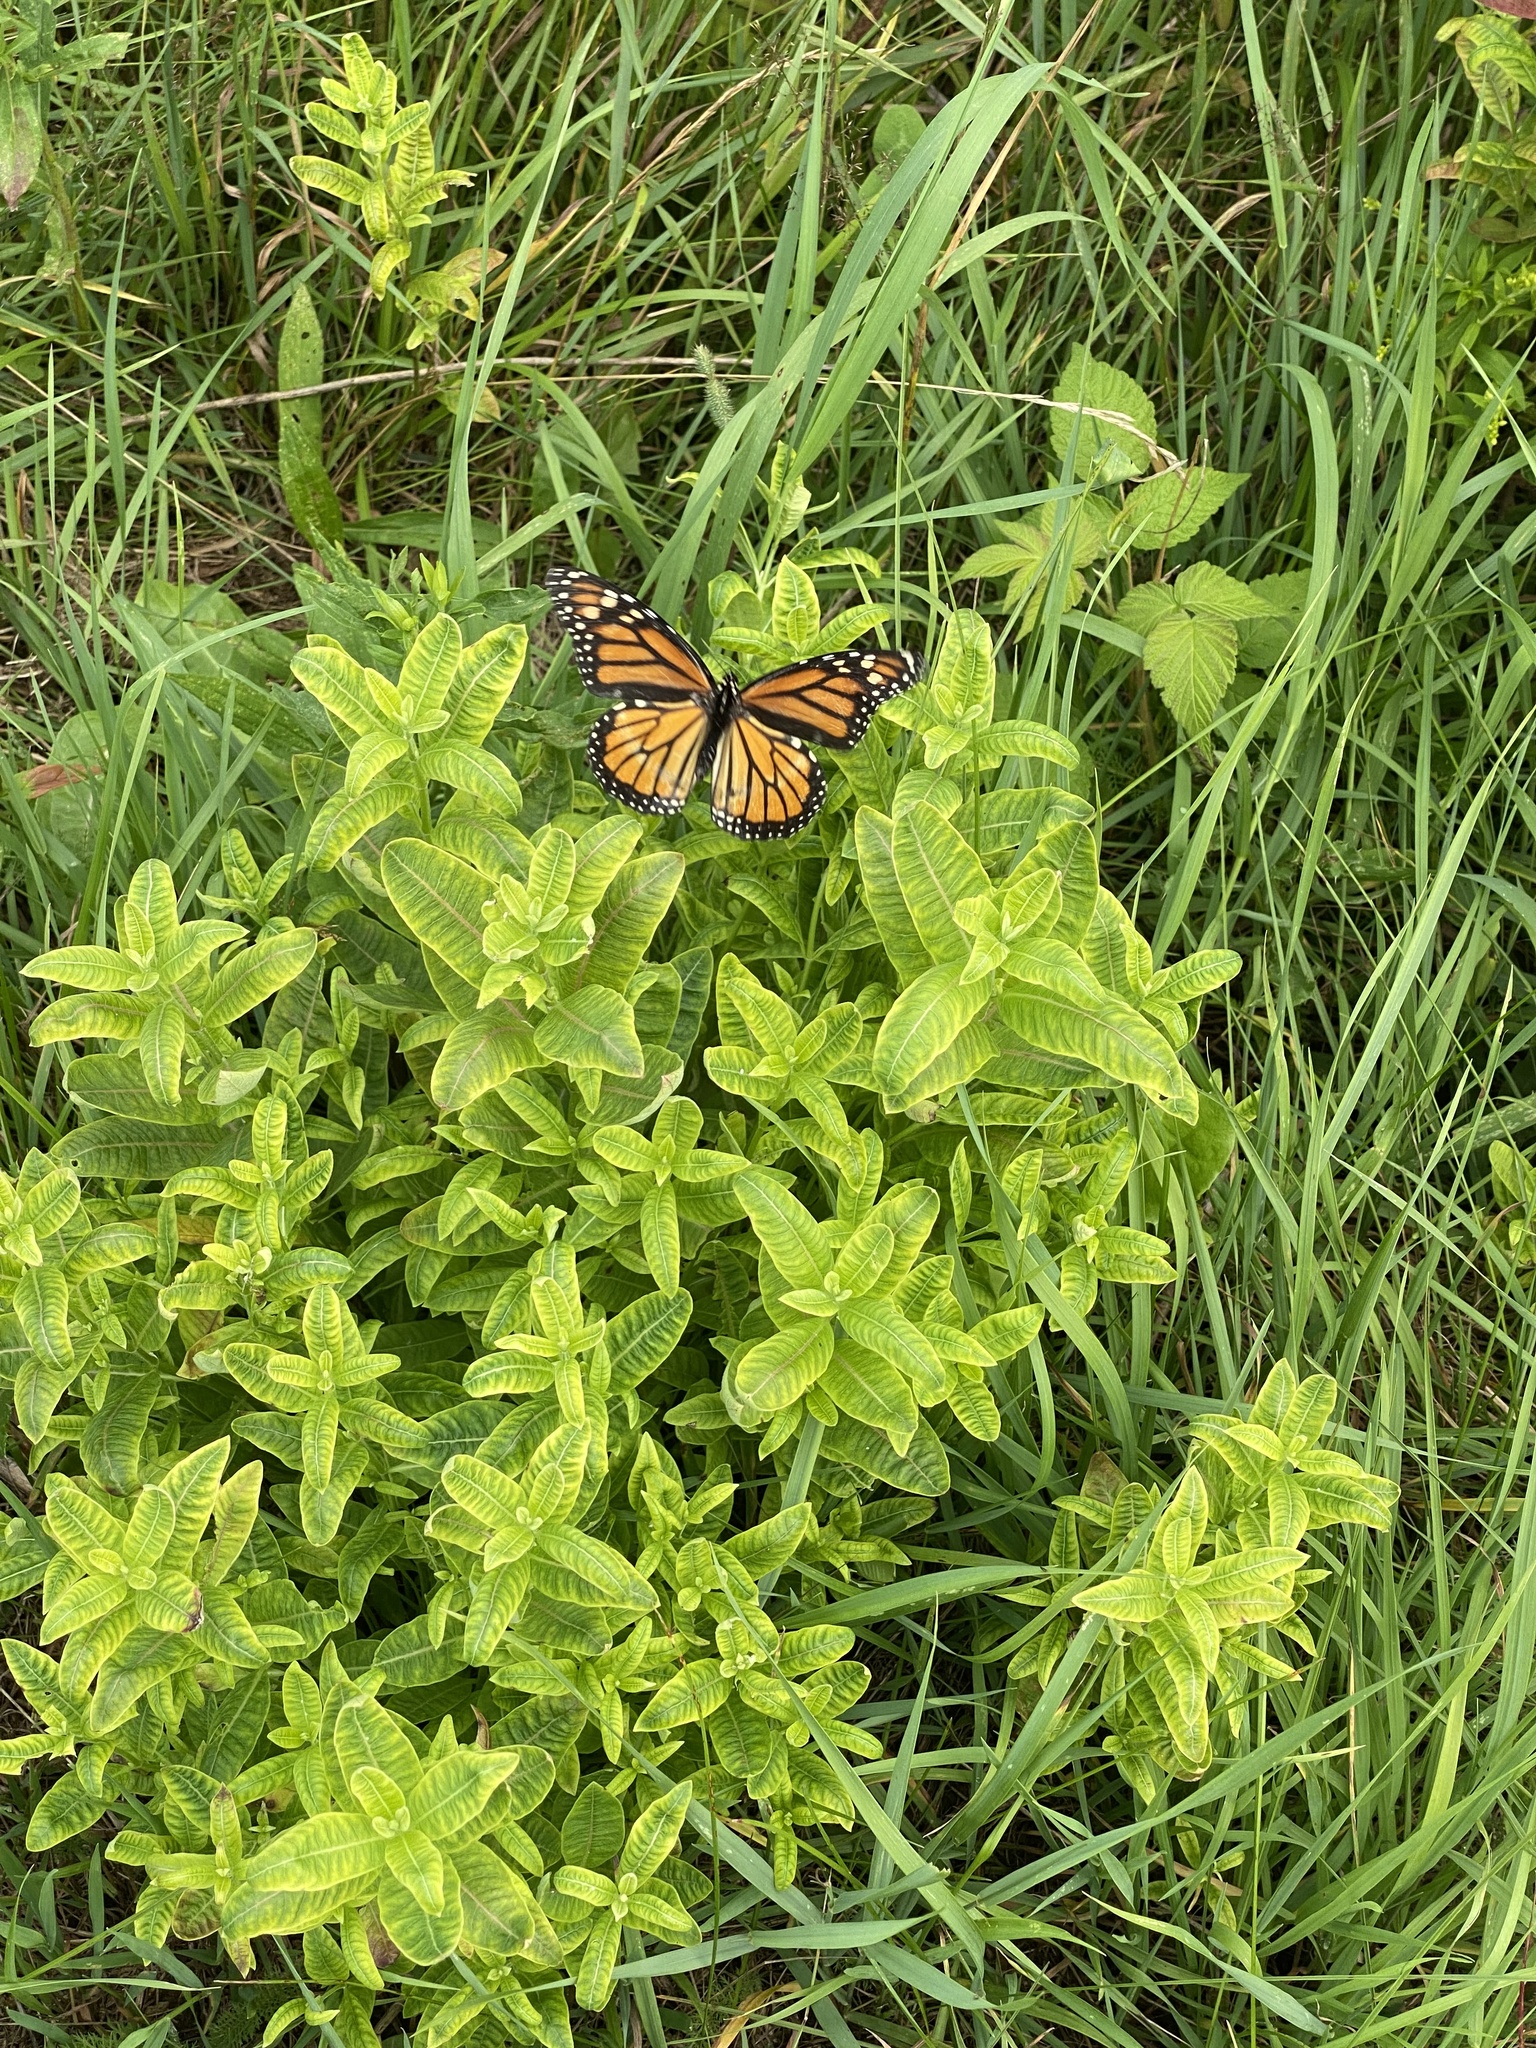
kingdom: Animalia
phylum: Arthropoda
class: Insecta
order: Lepidoptera
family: Nymphalidae
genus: Danaus
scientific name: Danaus plexippus
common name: Monarch
